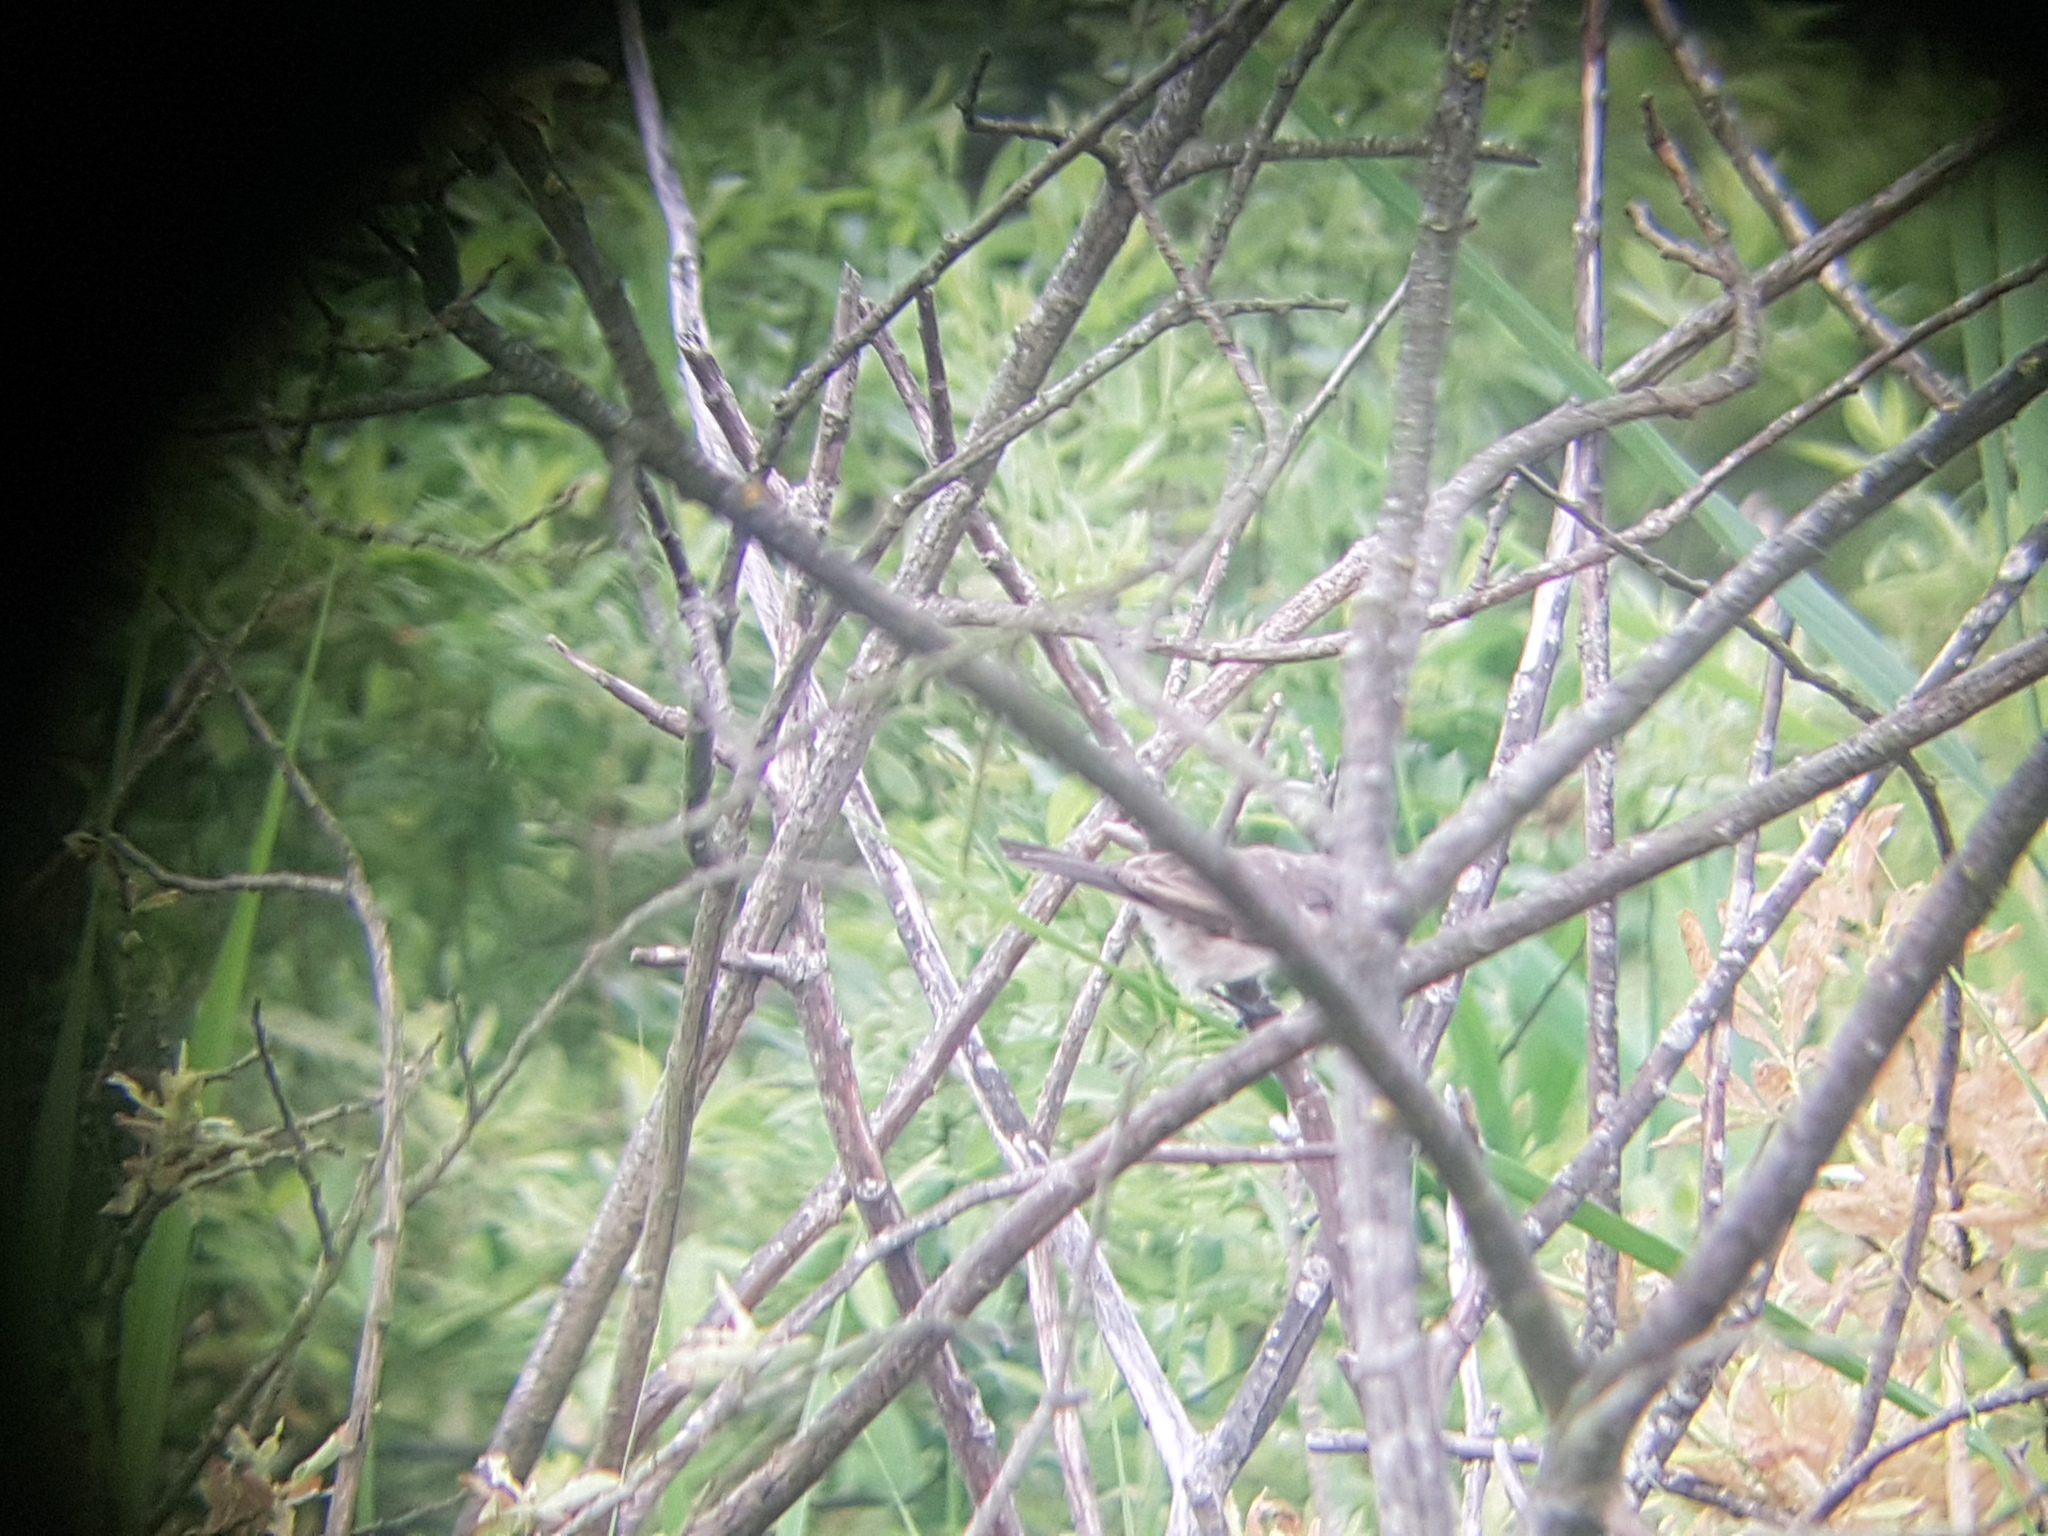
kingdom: Animalia
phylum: Chordata
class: Aves
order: Passeriformes
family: Sylviidae
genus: Sylvia
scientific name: Sylvia curruca
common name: Lesser whitethroat
